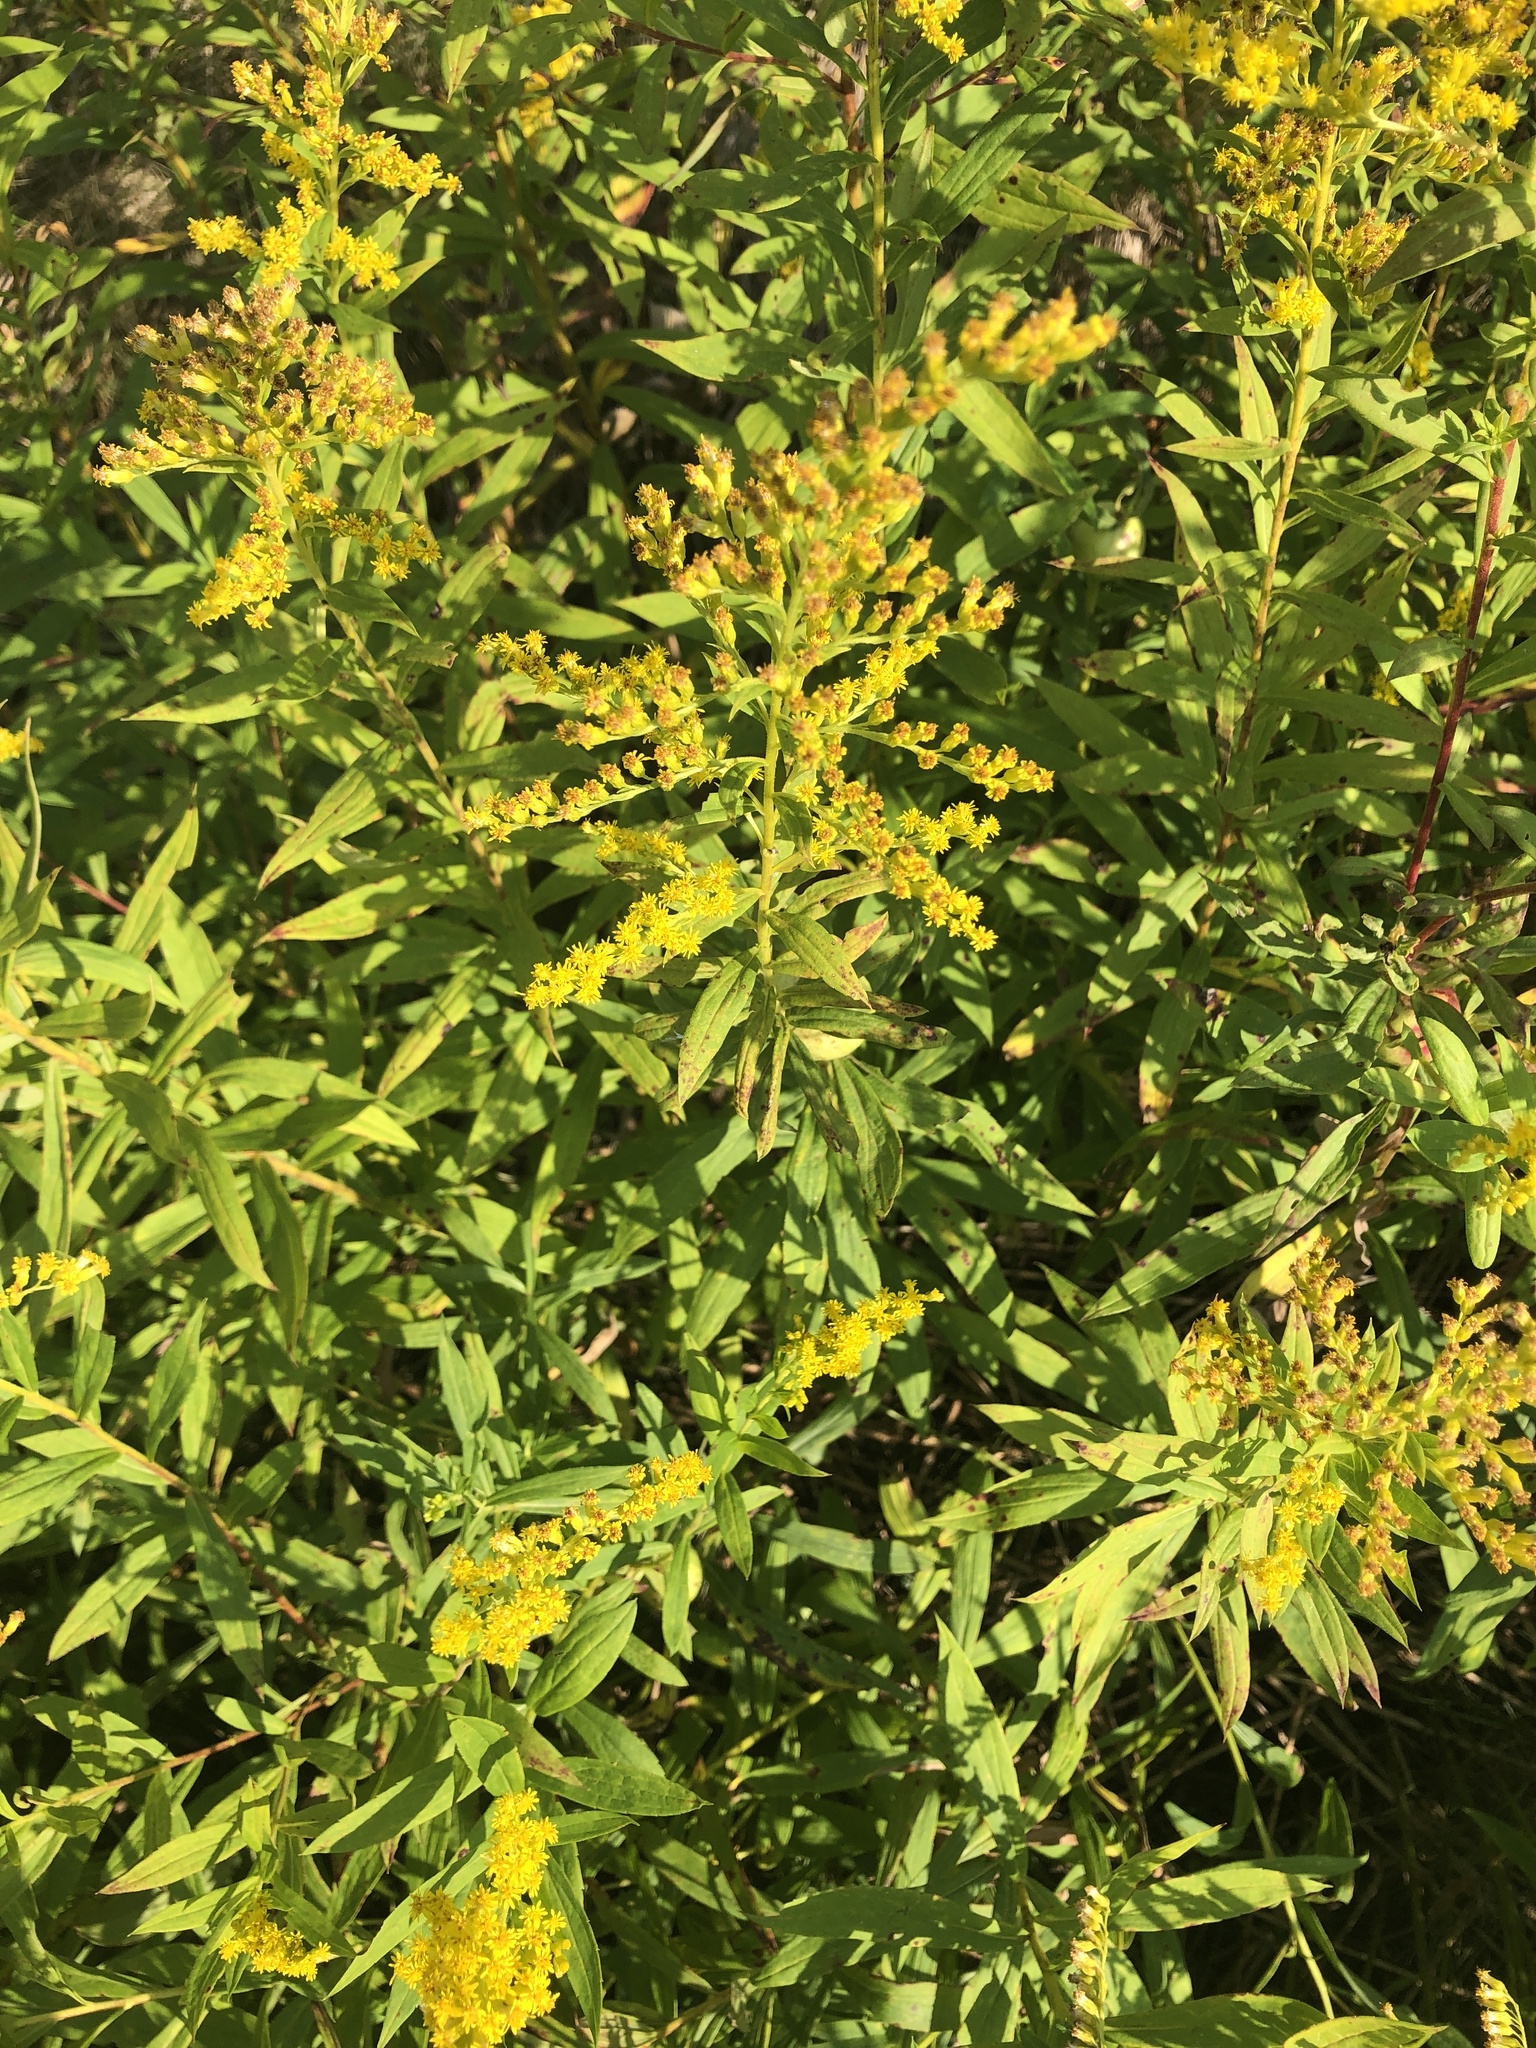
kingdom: Plantae
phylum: Tracheophyta
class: Magnoliopsida
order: Asterales
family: Asteraceae
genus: Solidago
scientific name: Solidago altissima
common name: Late goldenrod
